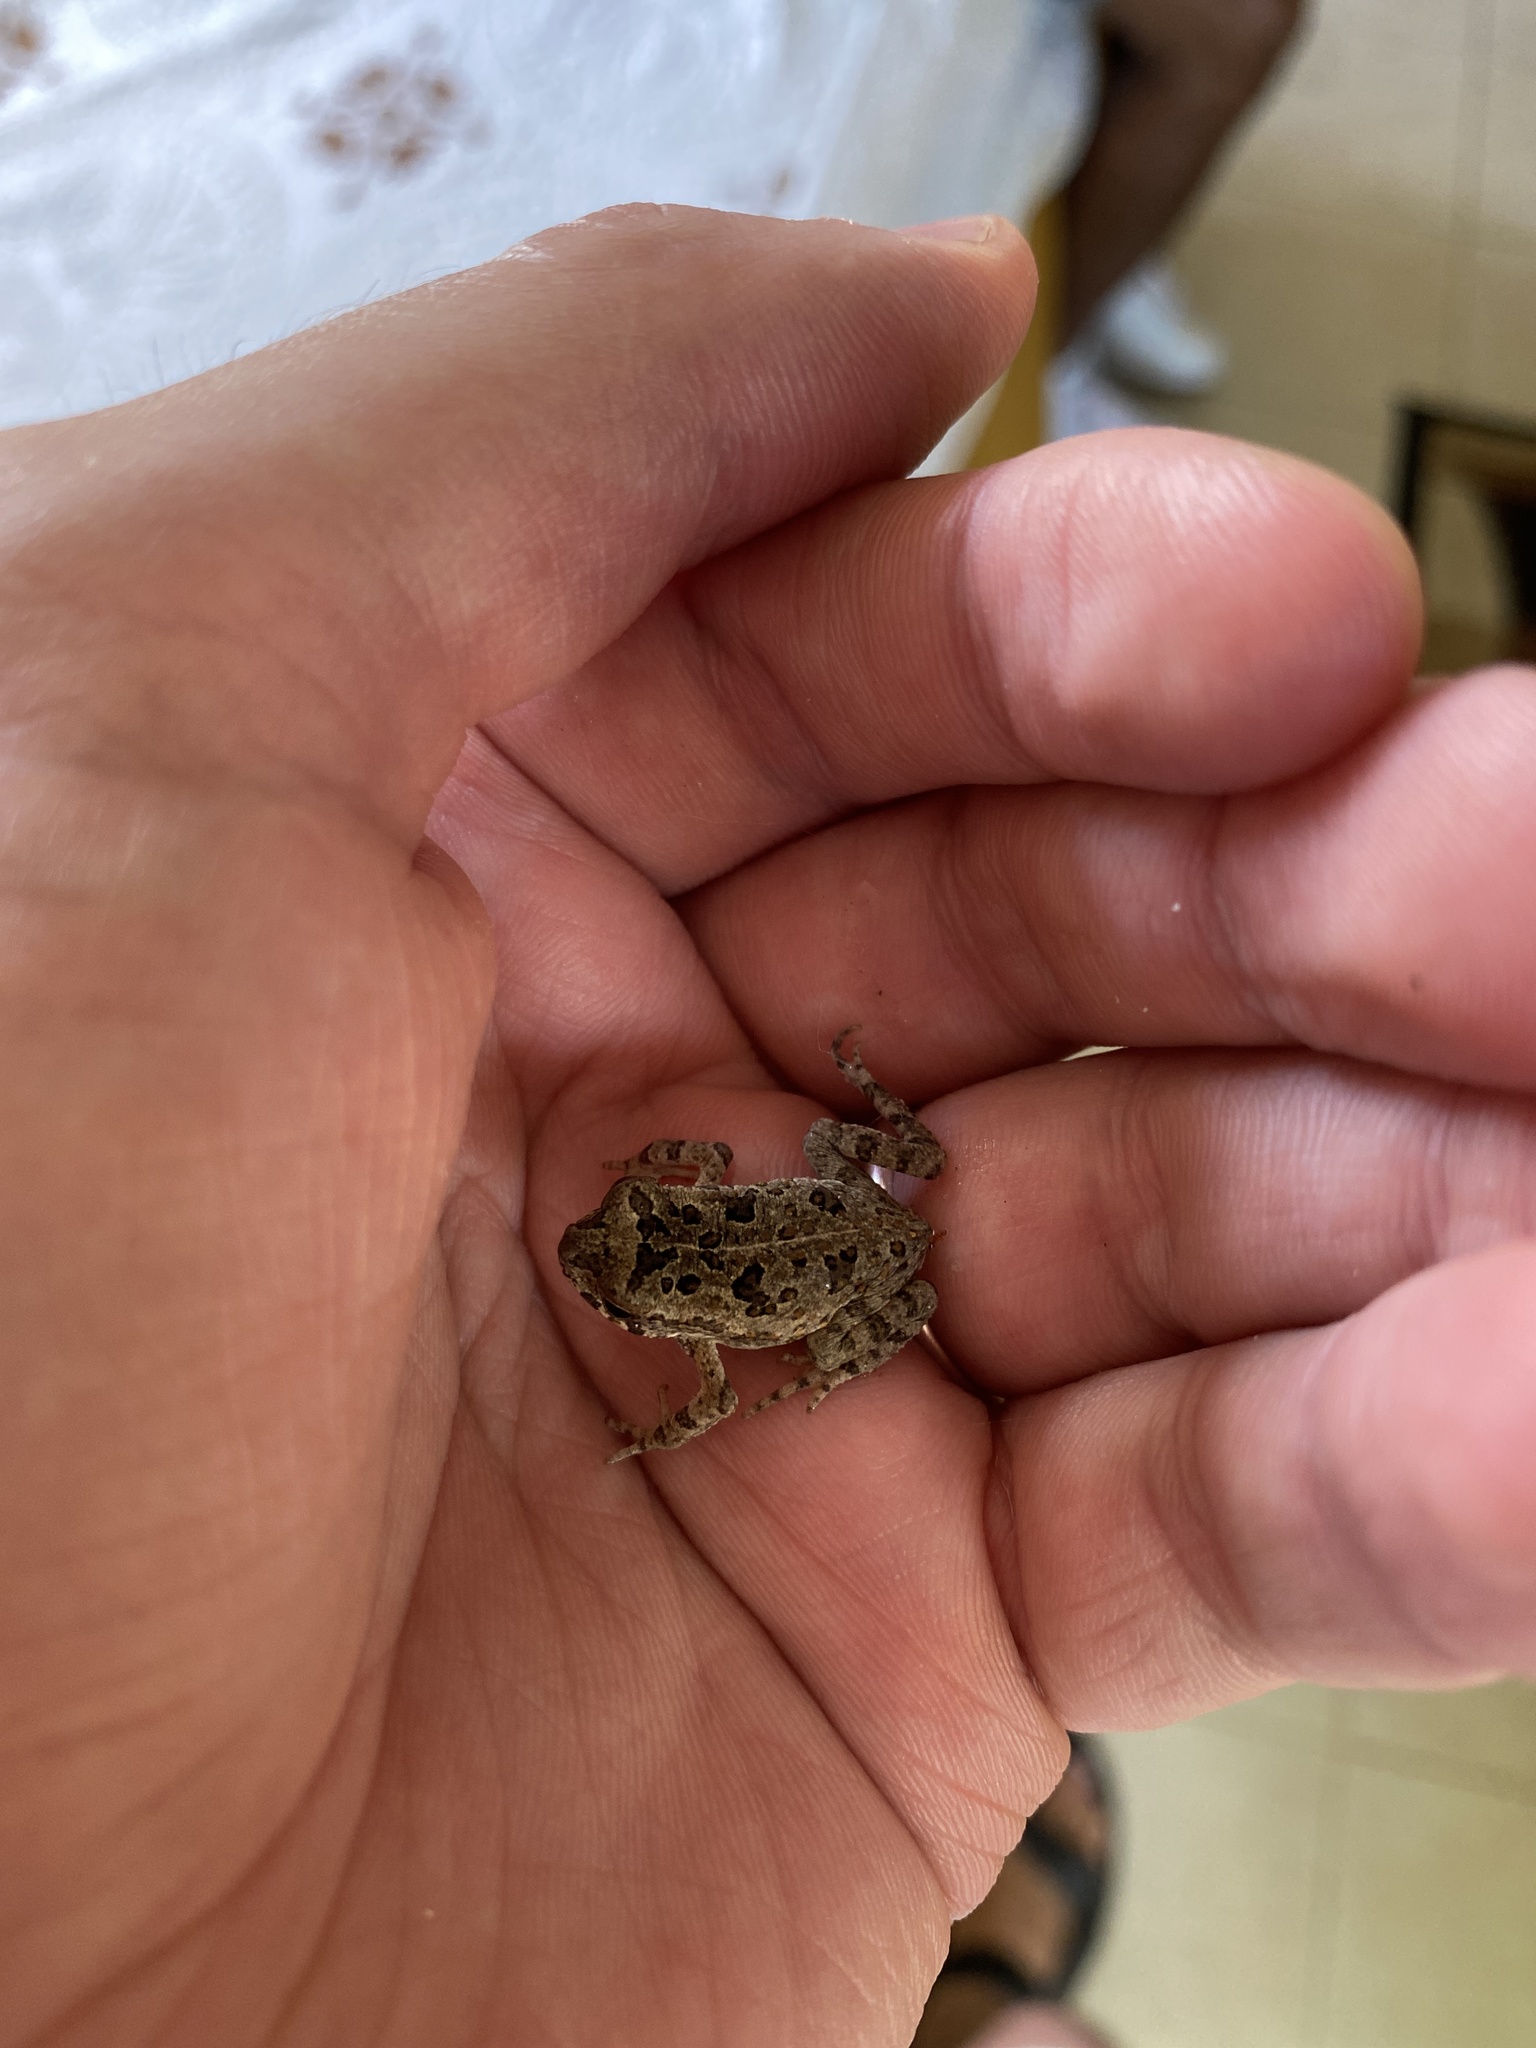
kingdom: Animalia
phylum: Chordata
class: Amphibia
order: Anura
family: Bufonidae
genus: Rhinella
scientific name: Rhinella marina
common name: Cane toad
